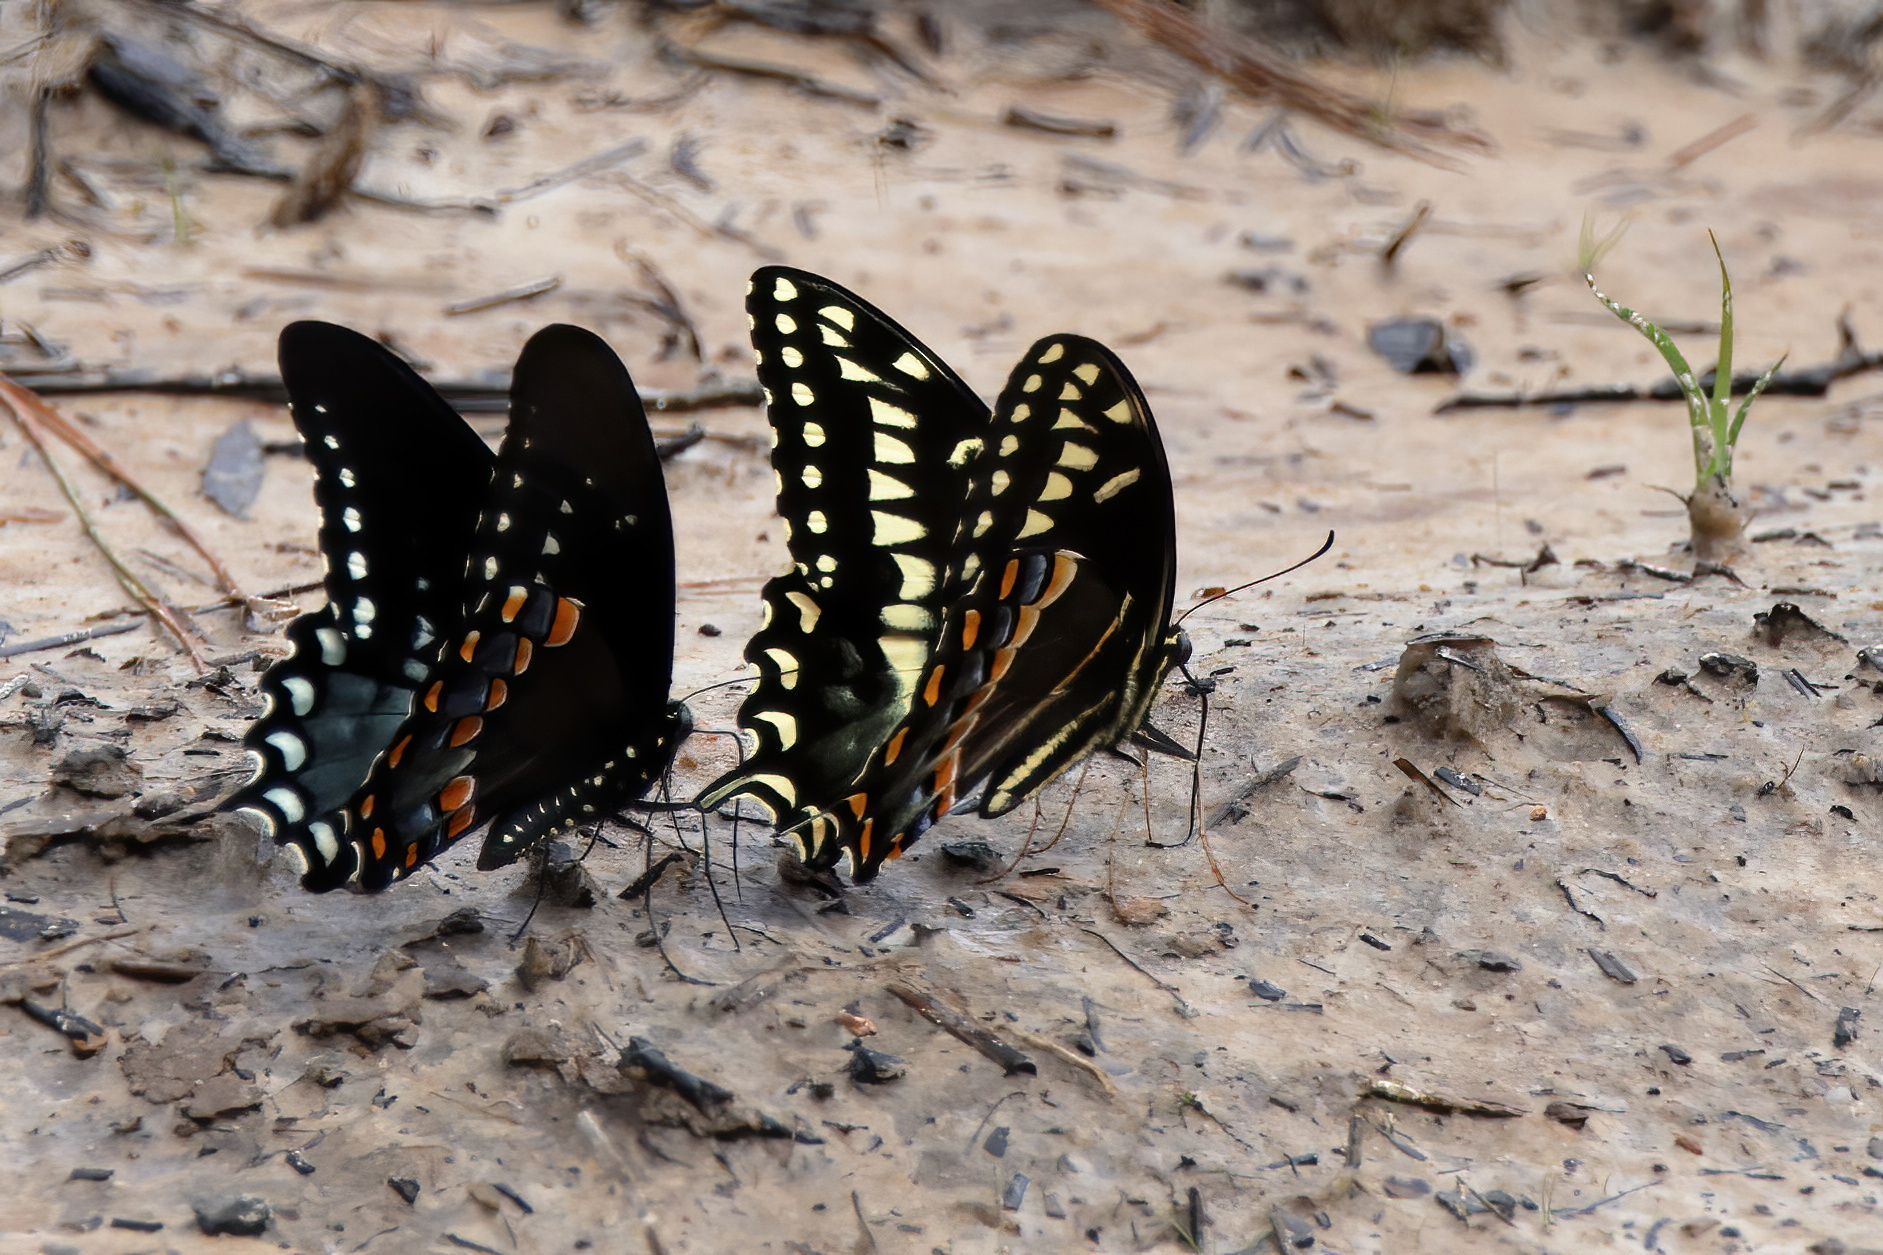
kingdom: Animalia
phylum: Arthropoda
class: Insecta
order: Lepidoptera
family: Papilionidae
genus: Papilio
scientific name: Papilio palamedes
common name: Palamedes swallowtail
